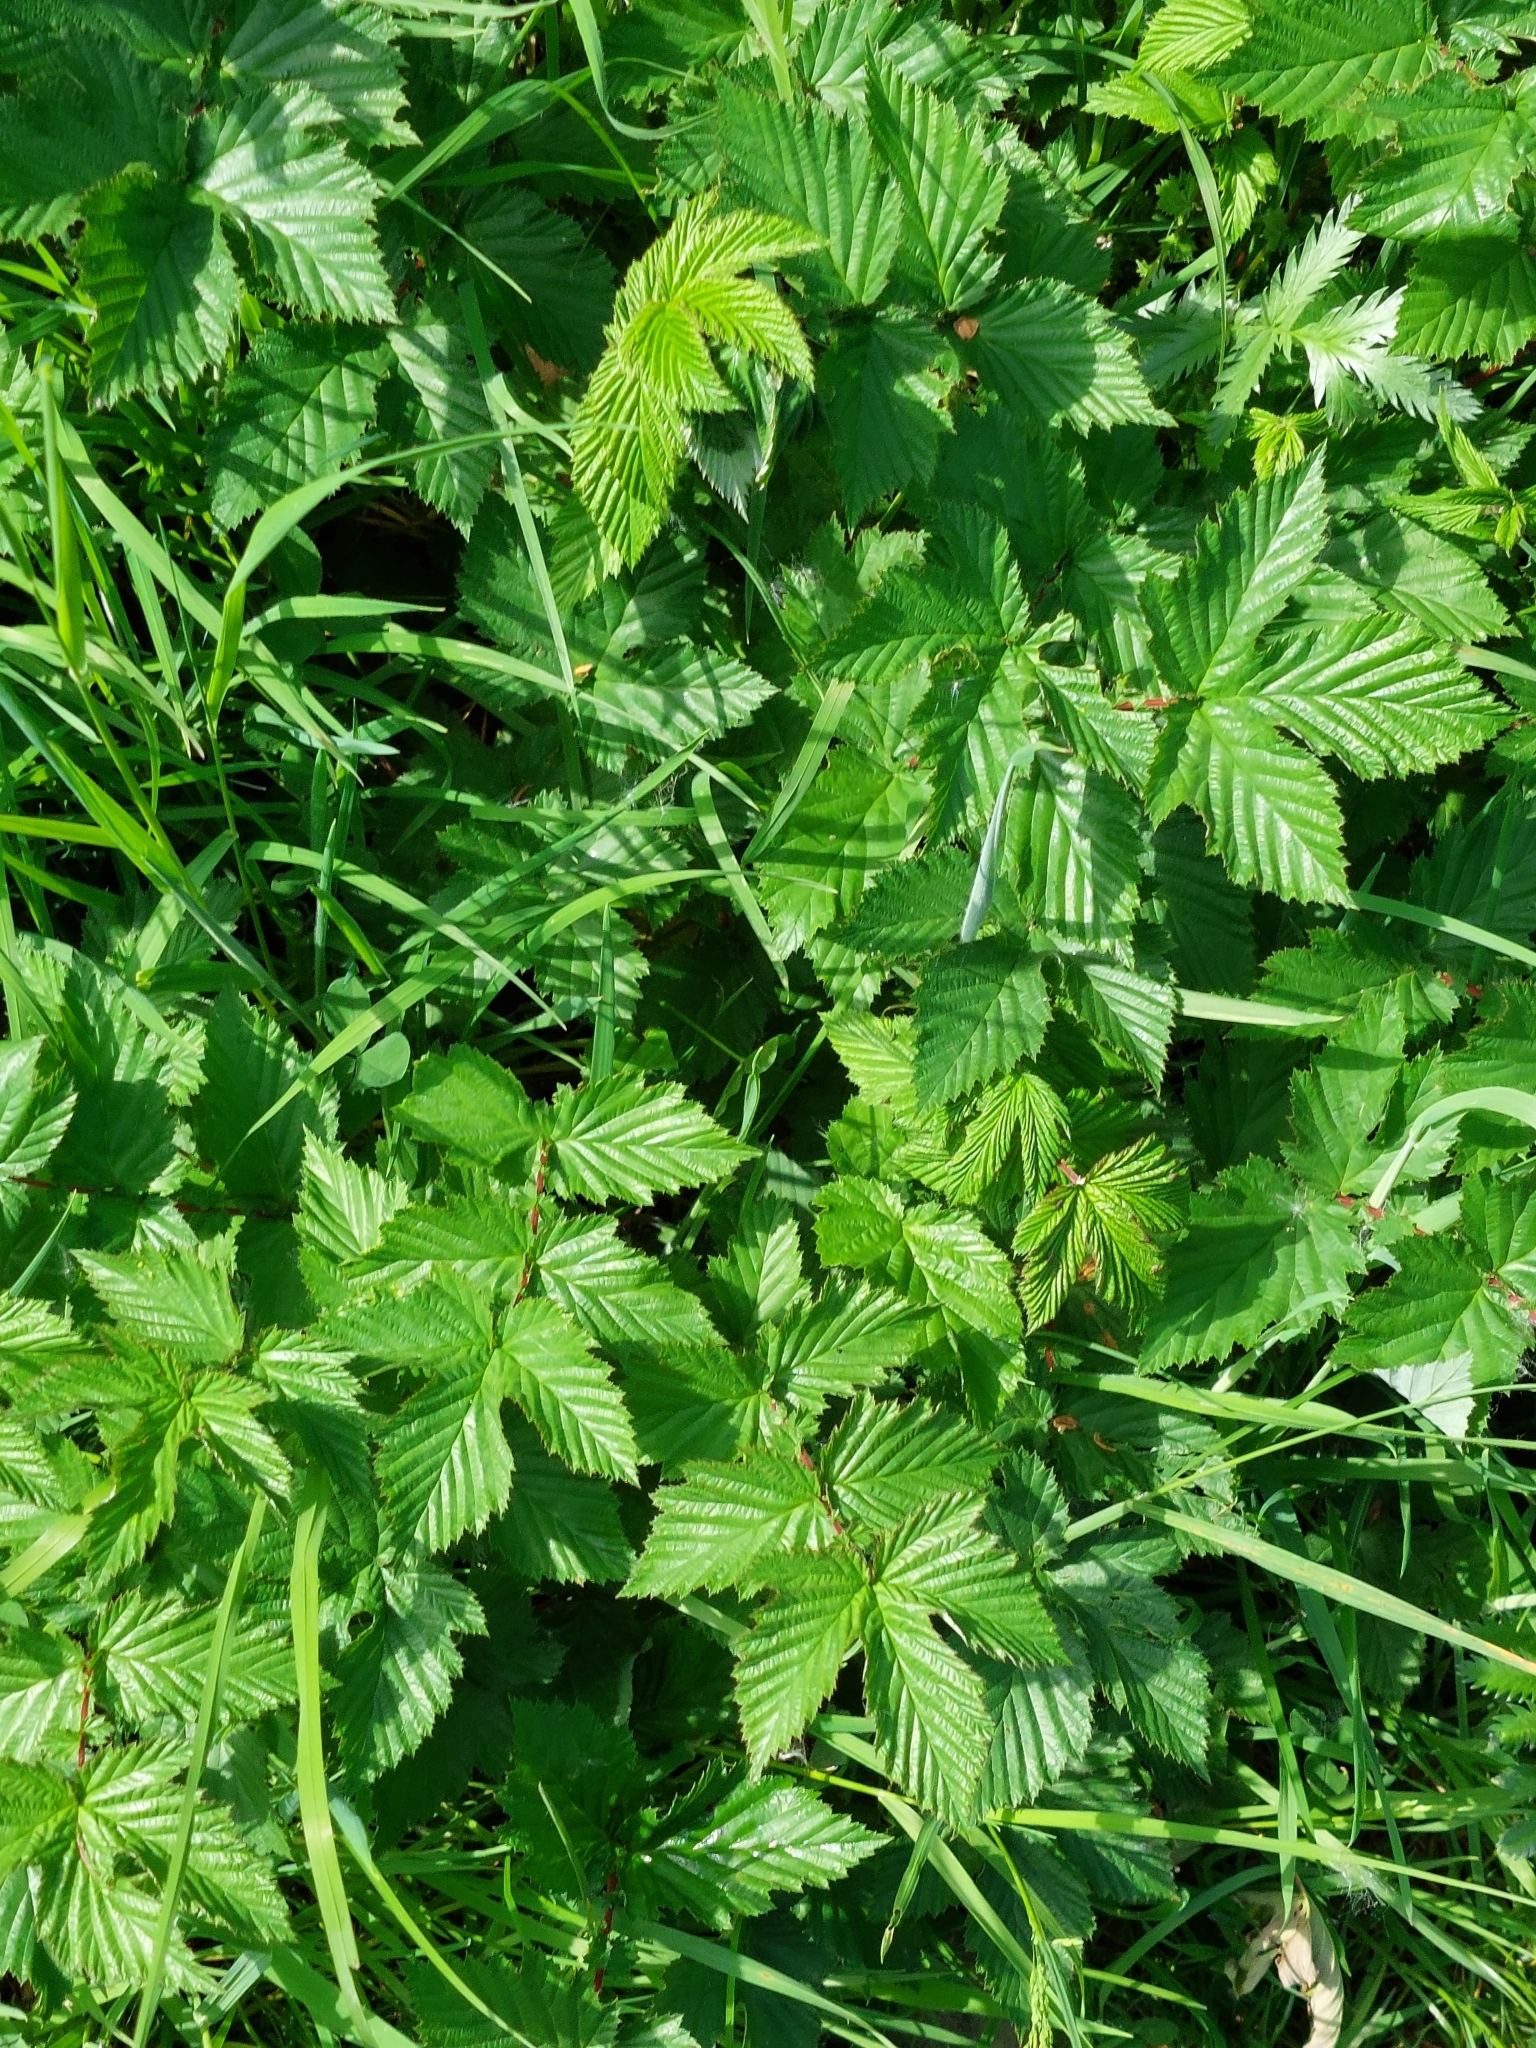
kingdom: Plantae
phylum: Tracheophyta
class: Magnoliopsida
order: Rosales
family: Rosaceae
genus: Filipendula
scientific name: Filipendula ulmaria
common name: Meadowsweet
